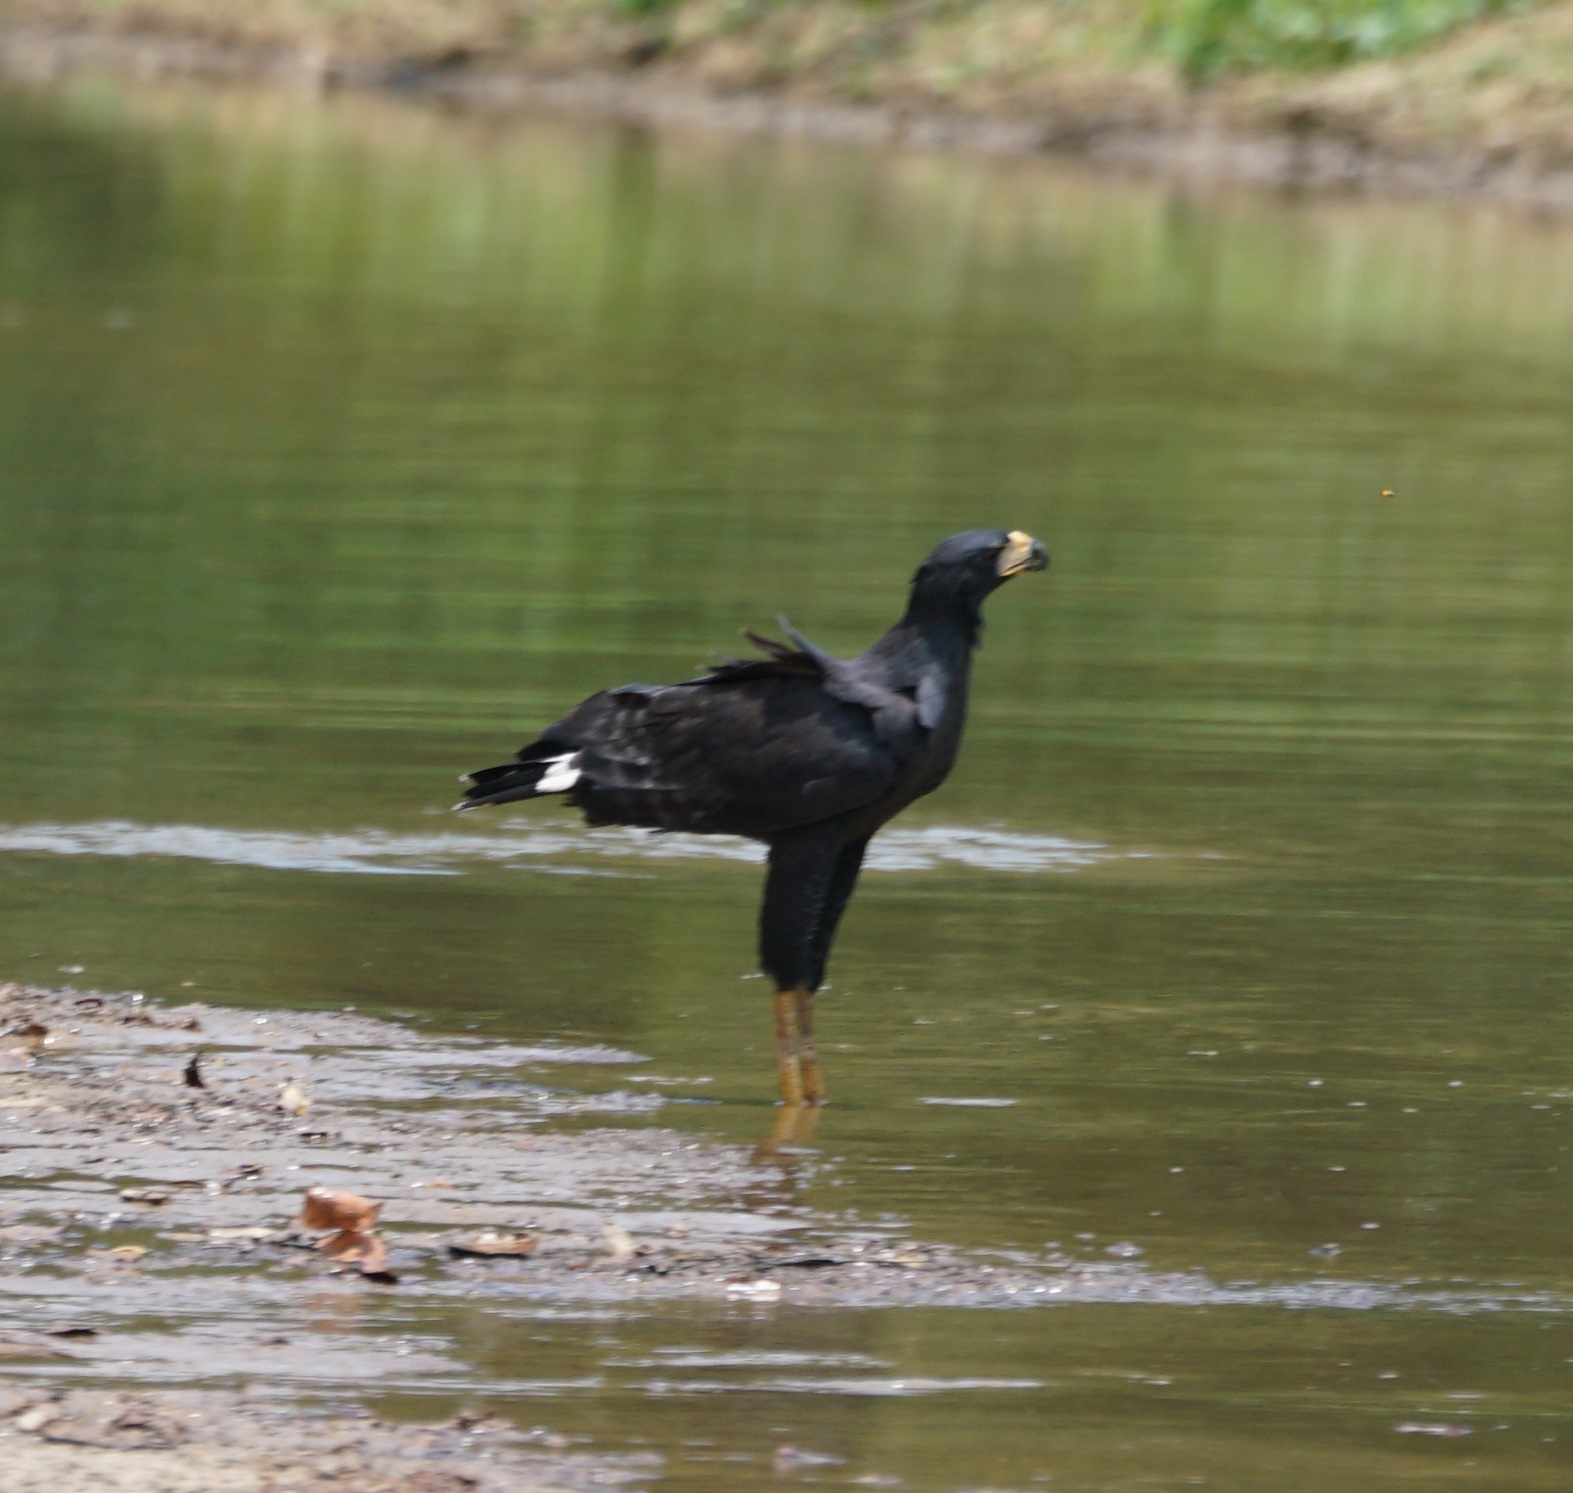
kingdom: Animalia
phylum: Chordata
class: Aves
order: Accipitriformes
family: Accipitridae
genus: Buteogallus
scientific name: Buteogallus urubitinga
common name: Great black hawk
